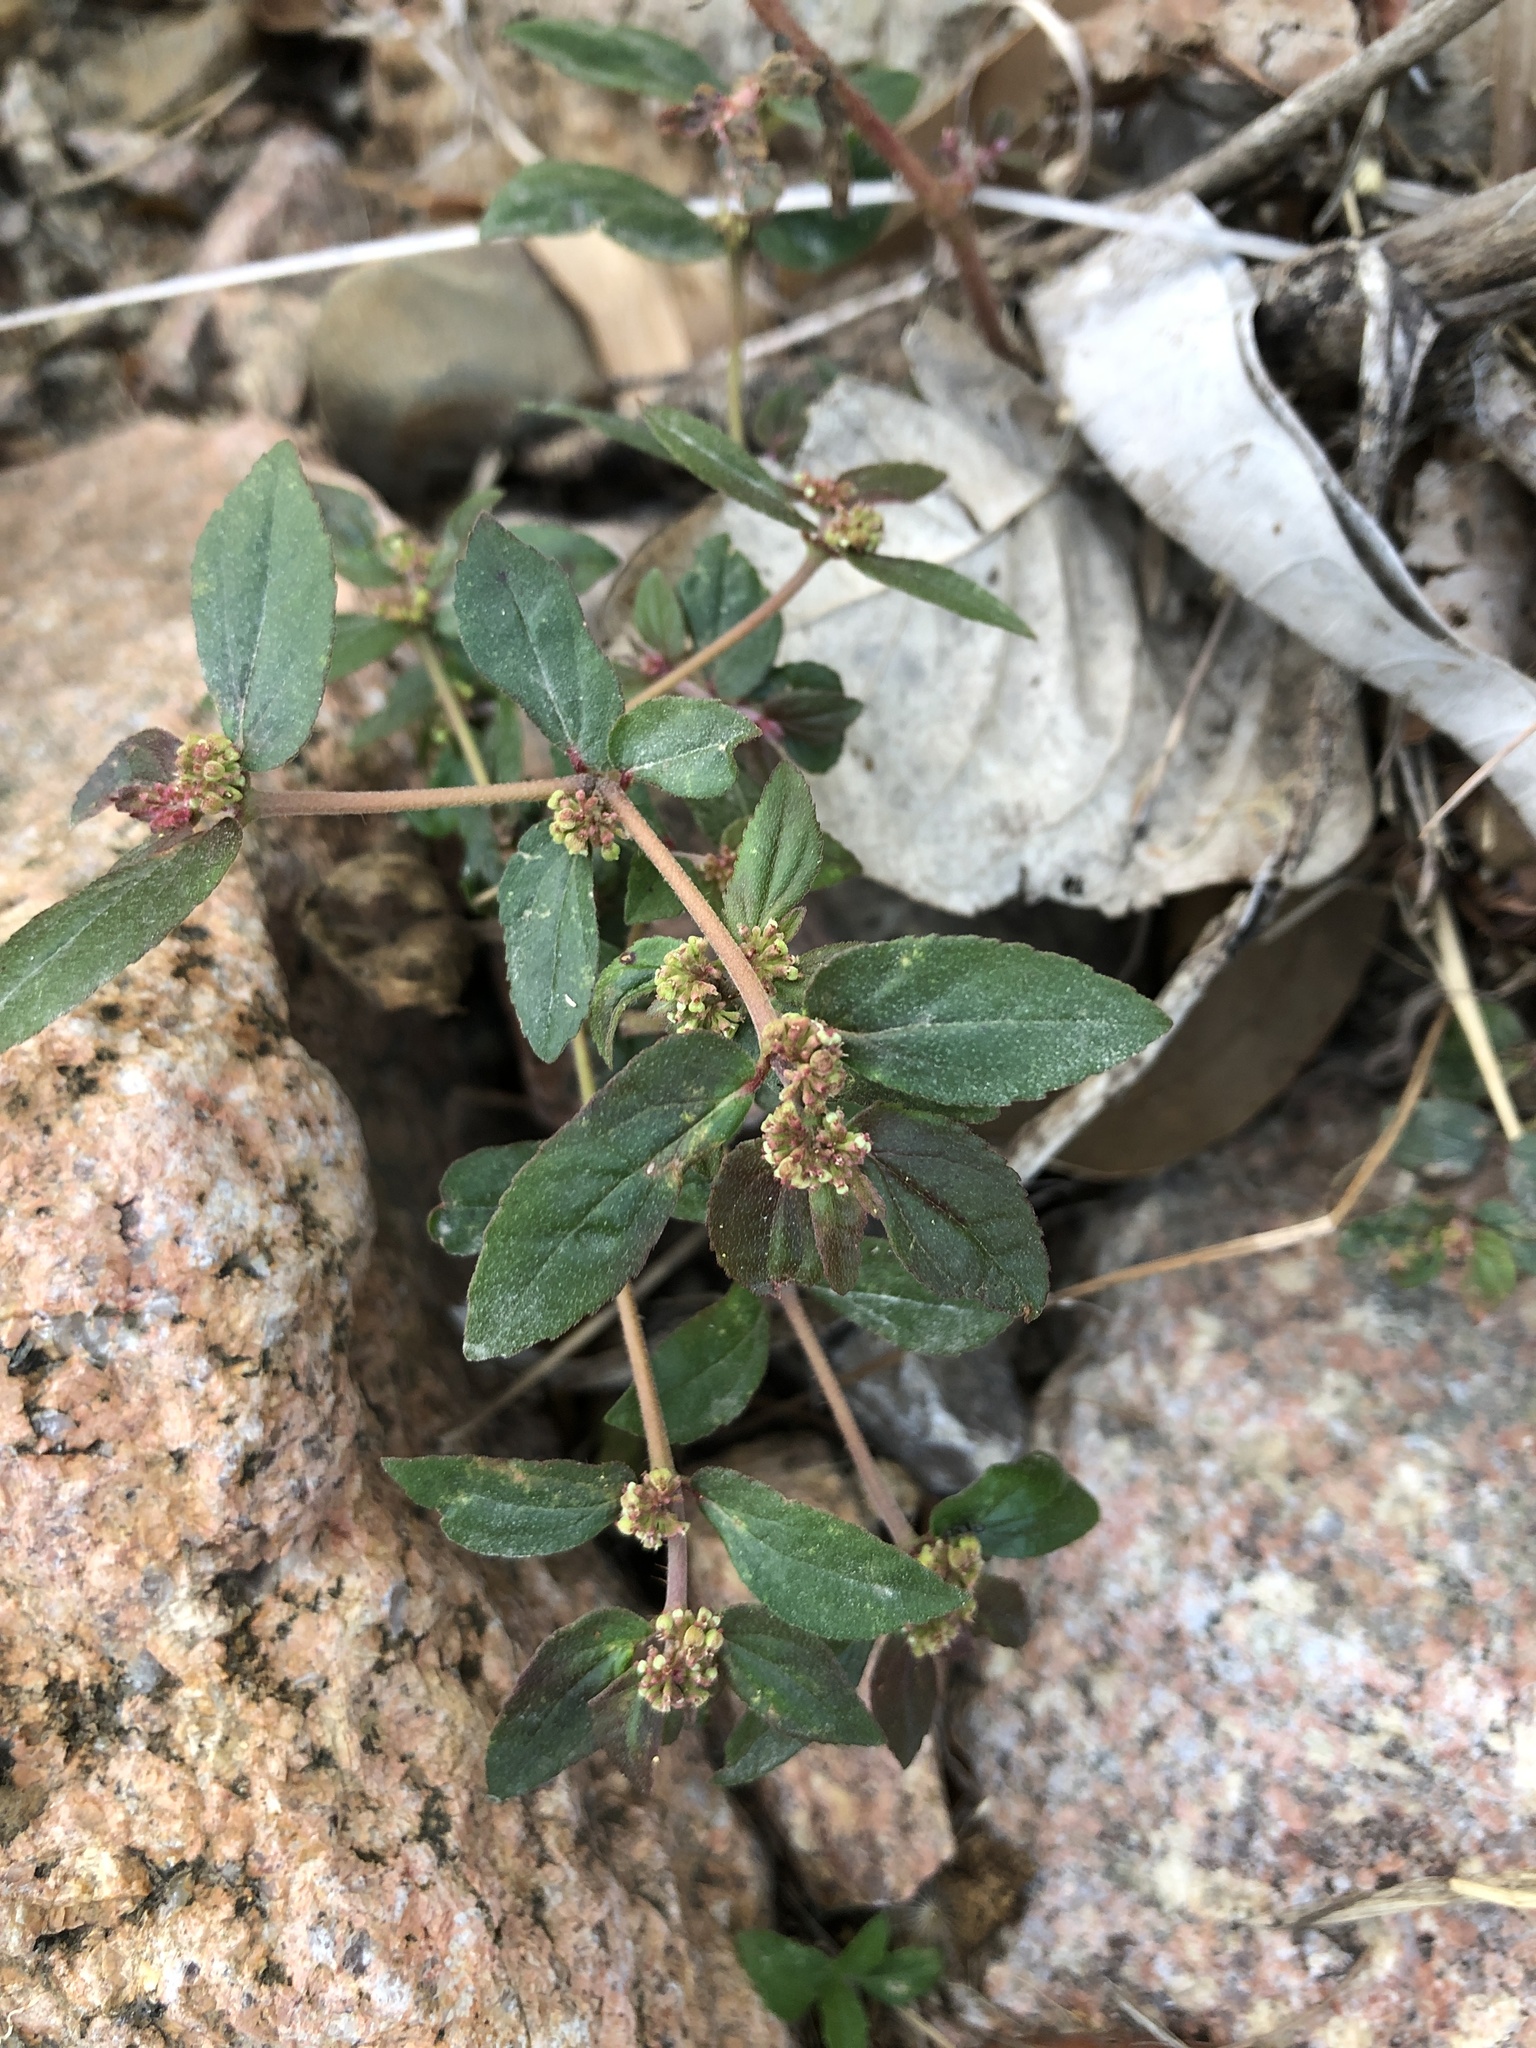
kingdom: Plantae
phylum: Tracheophyta
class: Magnoliopsida
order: Malpighiales
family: Euphorbiaceae
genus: Euphorbia
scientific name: Euphorbia hirta
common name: Pillpod sandmat
